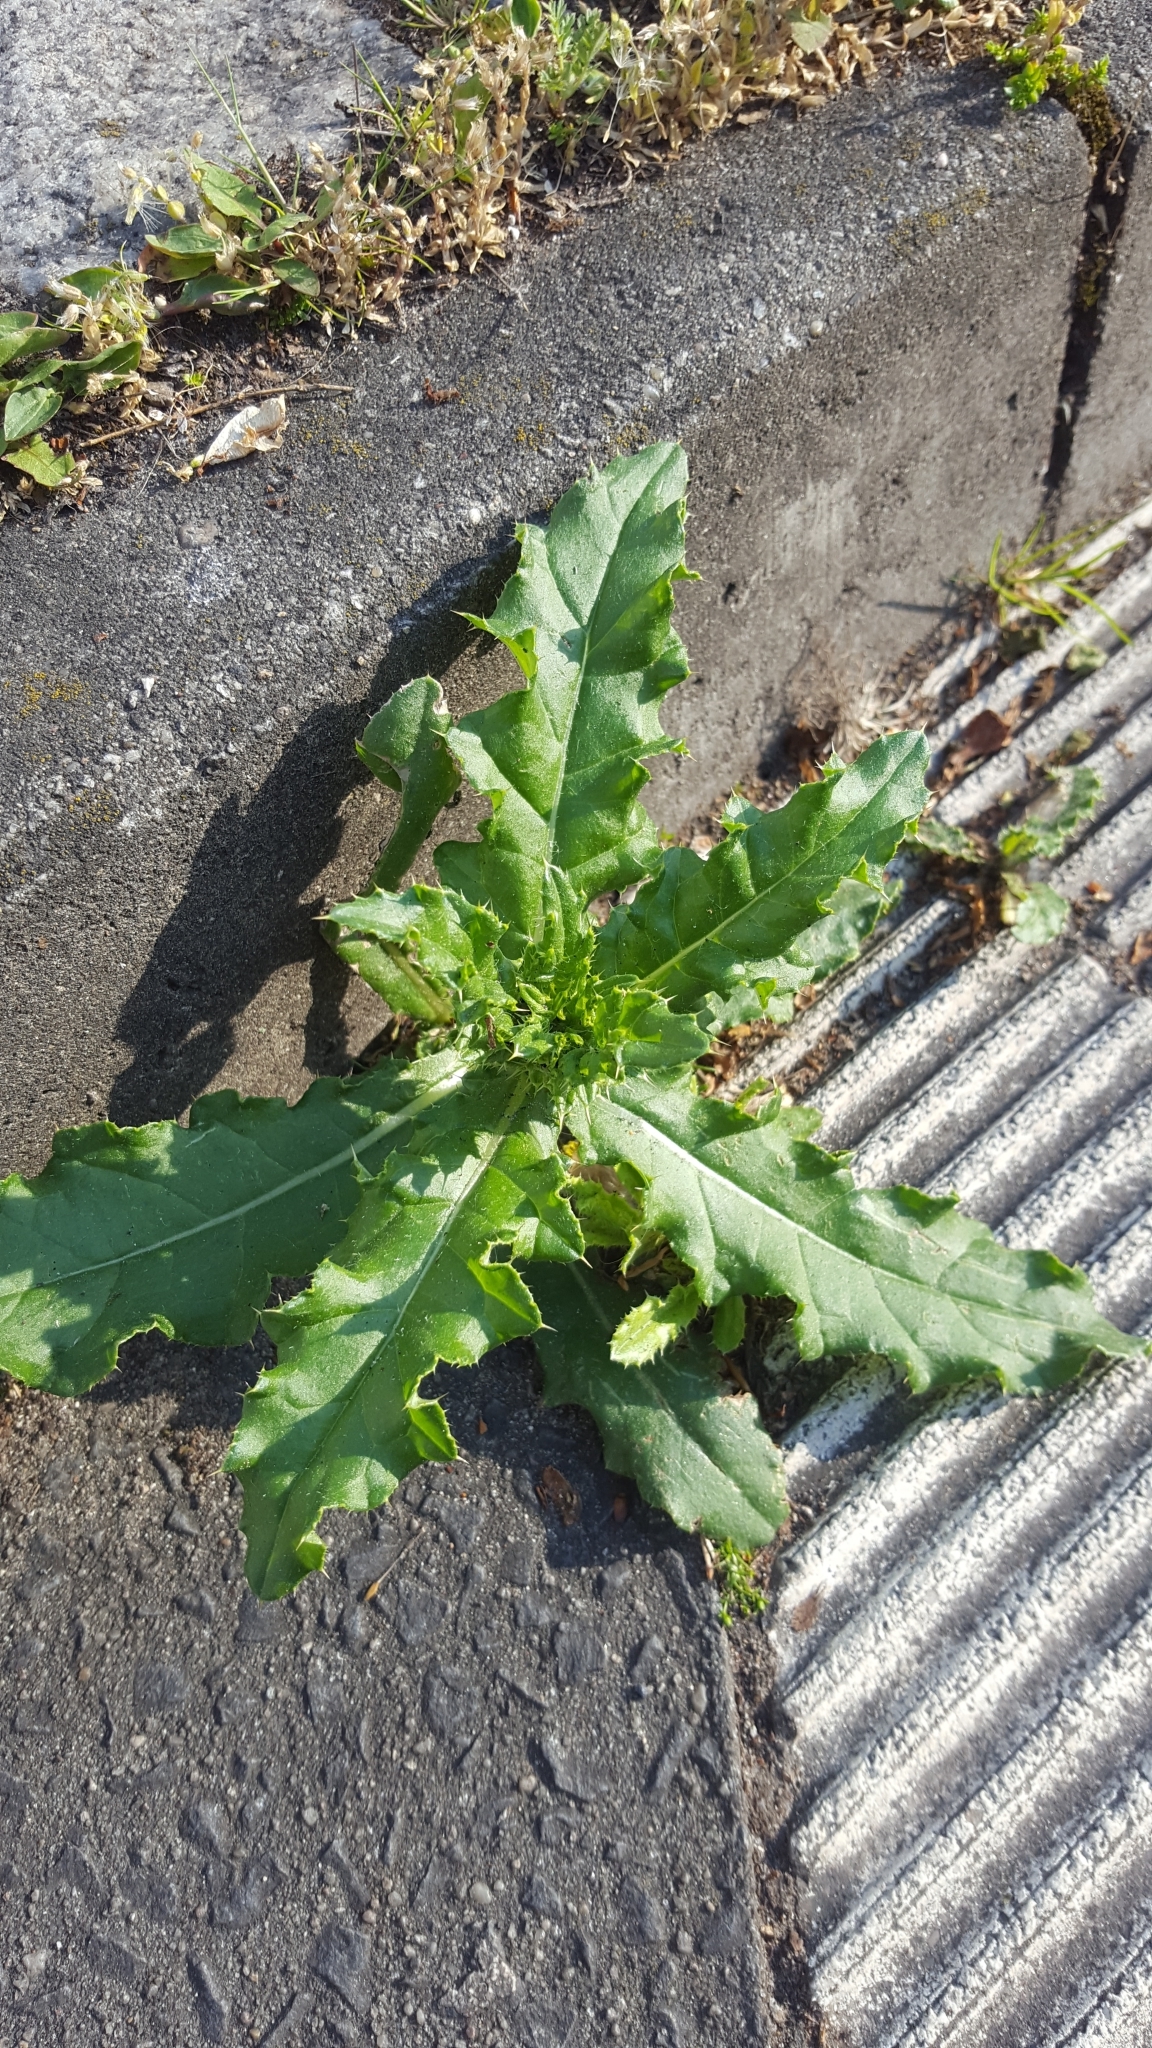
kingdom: Plantae
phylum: Tracheophyta
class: Magnoliopsida
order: Asterales
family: Asteraceae
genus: Cirsium
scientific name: Cirsium arvense
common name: Creeping thistle
